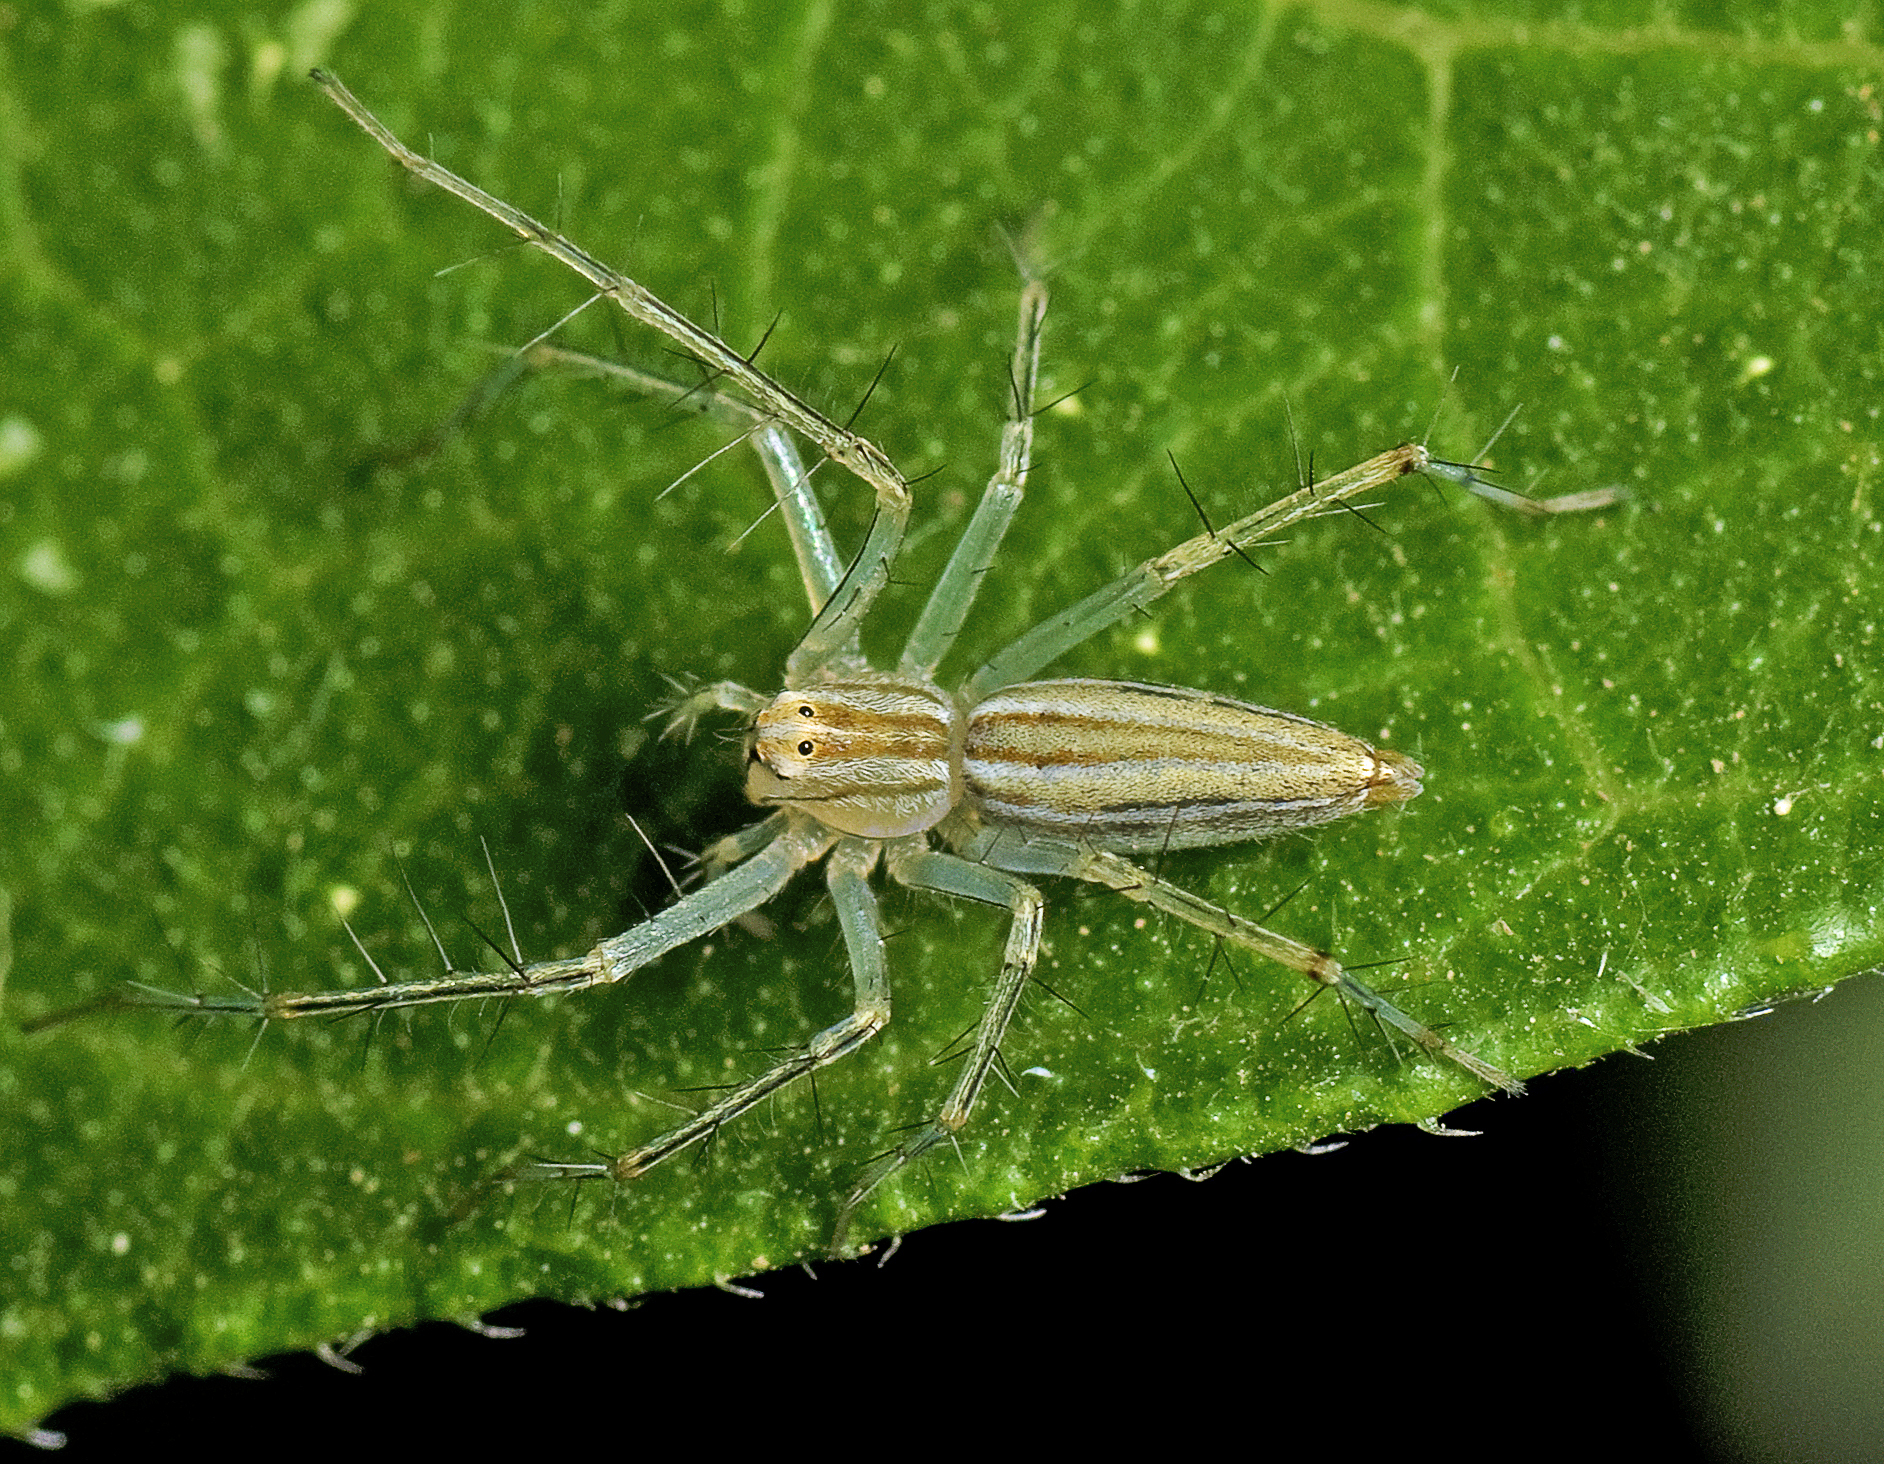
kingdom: Animalia
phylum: Arthropoda
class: Arachnida
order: Araneae
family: Oxyopidae
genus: Oxyopes
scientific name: Oxyopes macilentus
